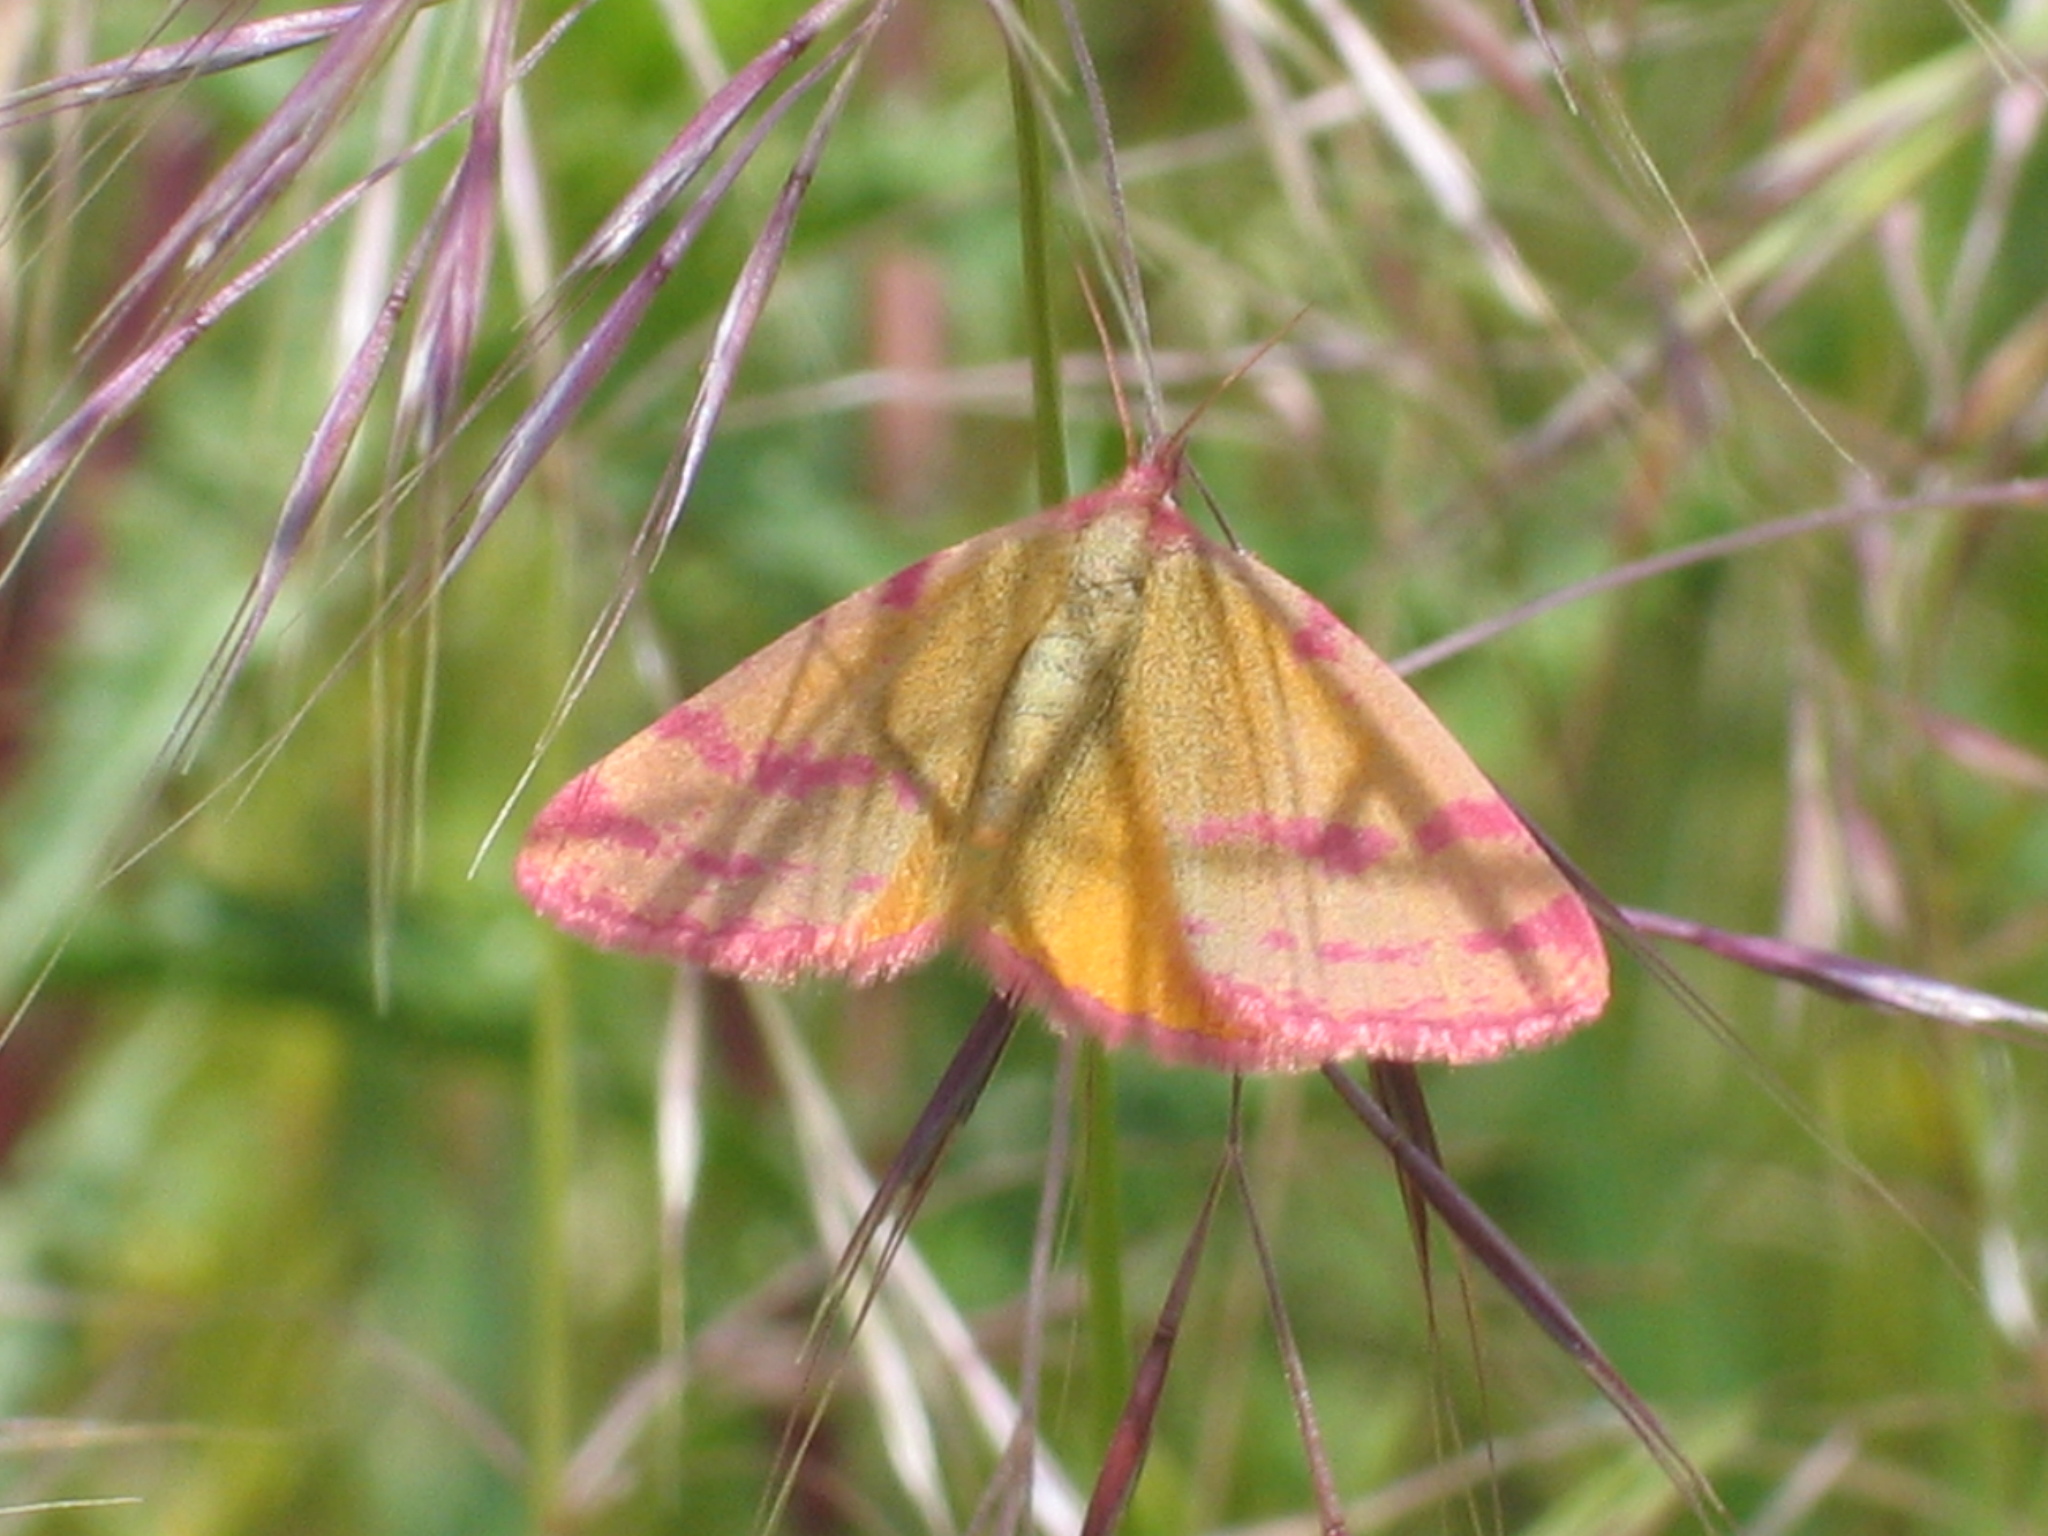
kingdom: Animalia
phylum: Arthropoda
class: Insecta
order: Lepidoptera
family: Geometridae
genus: Lythria
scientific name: Lythria cruentaria
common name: Purple-barred yellow
